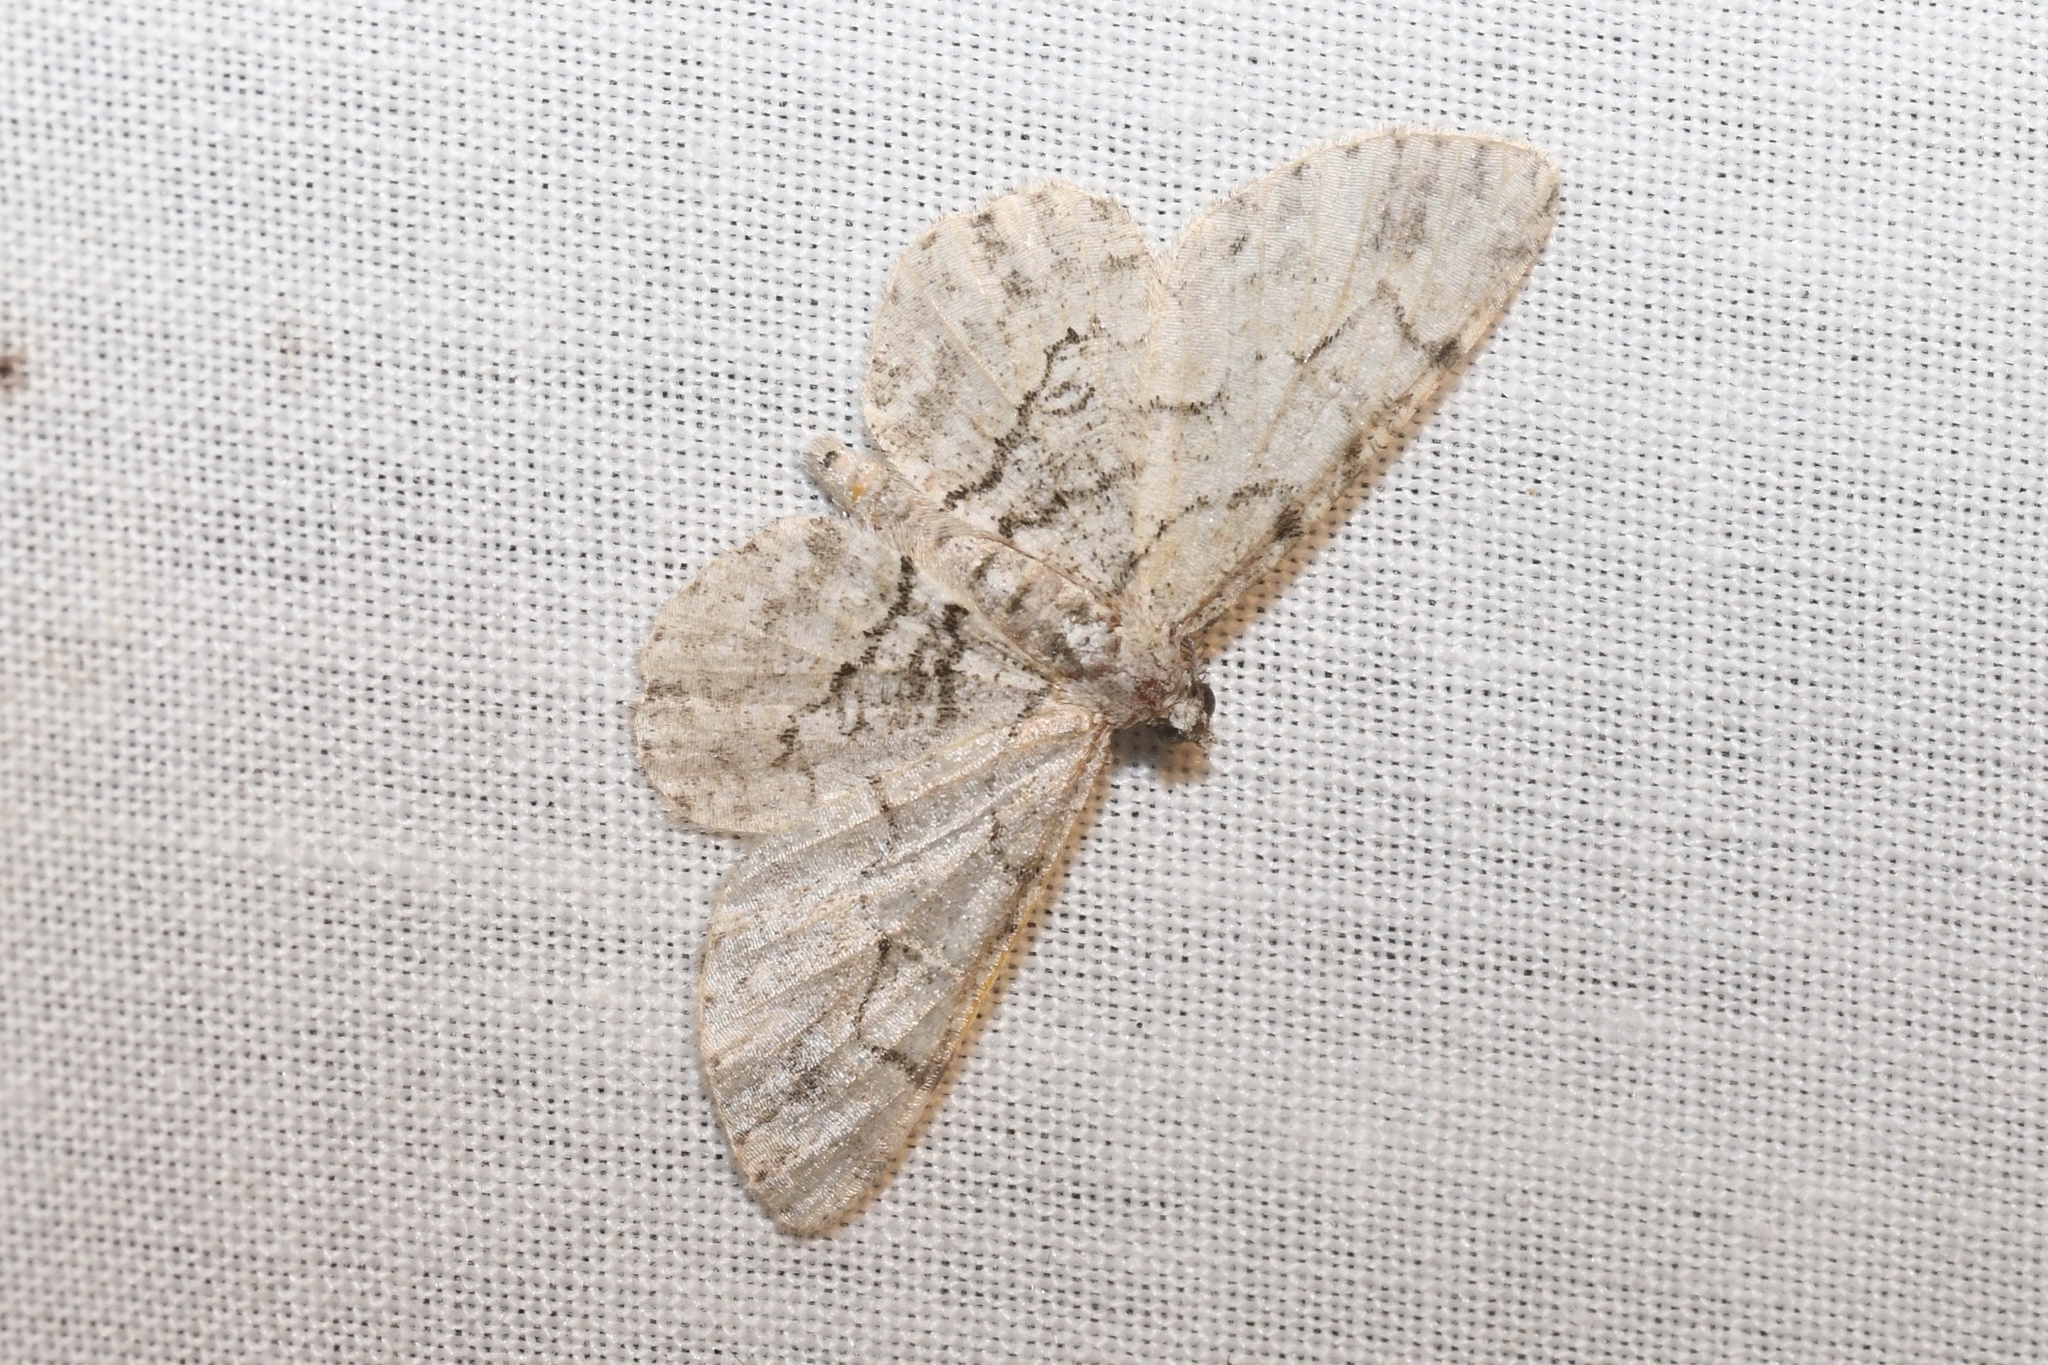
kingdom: Animalia
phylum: Arthropoda
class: Insecta
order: Lepidoptera
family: Geometridae
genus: Iridopsis
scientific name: Iridopsis ephyraria
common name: Pale-winged gray
